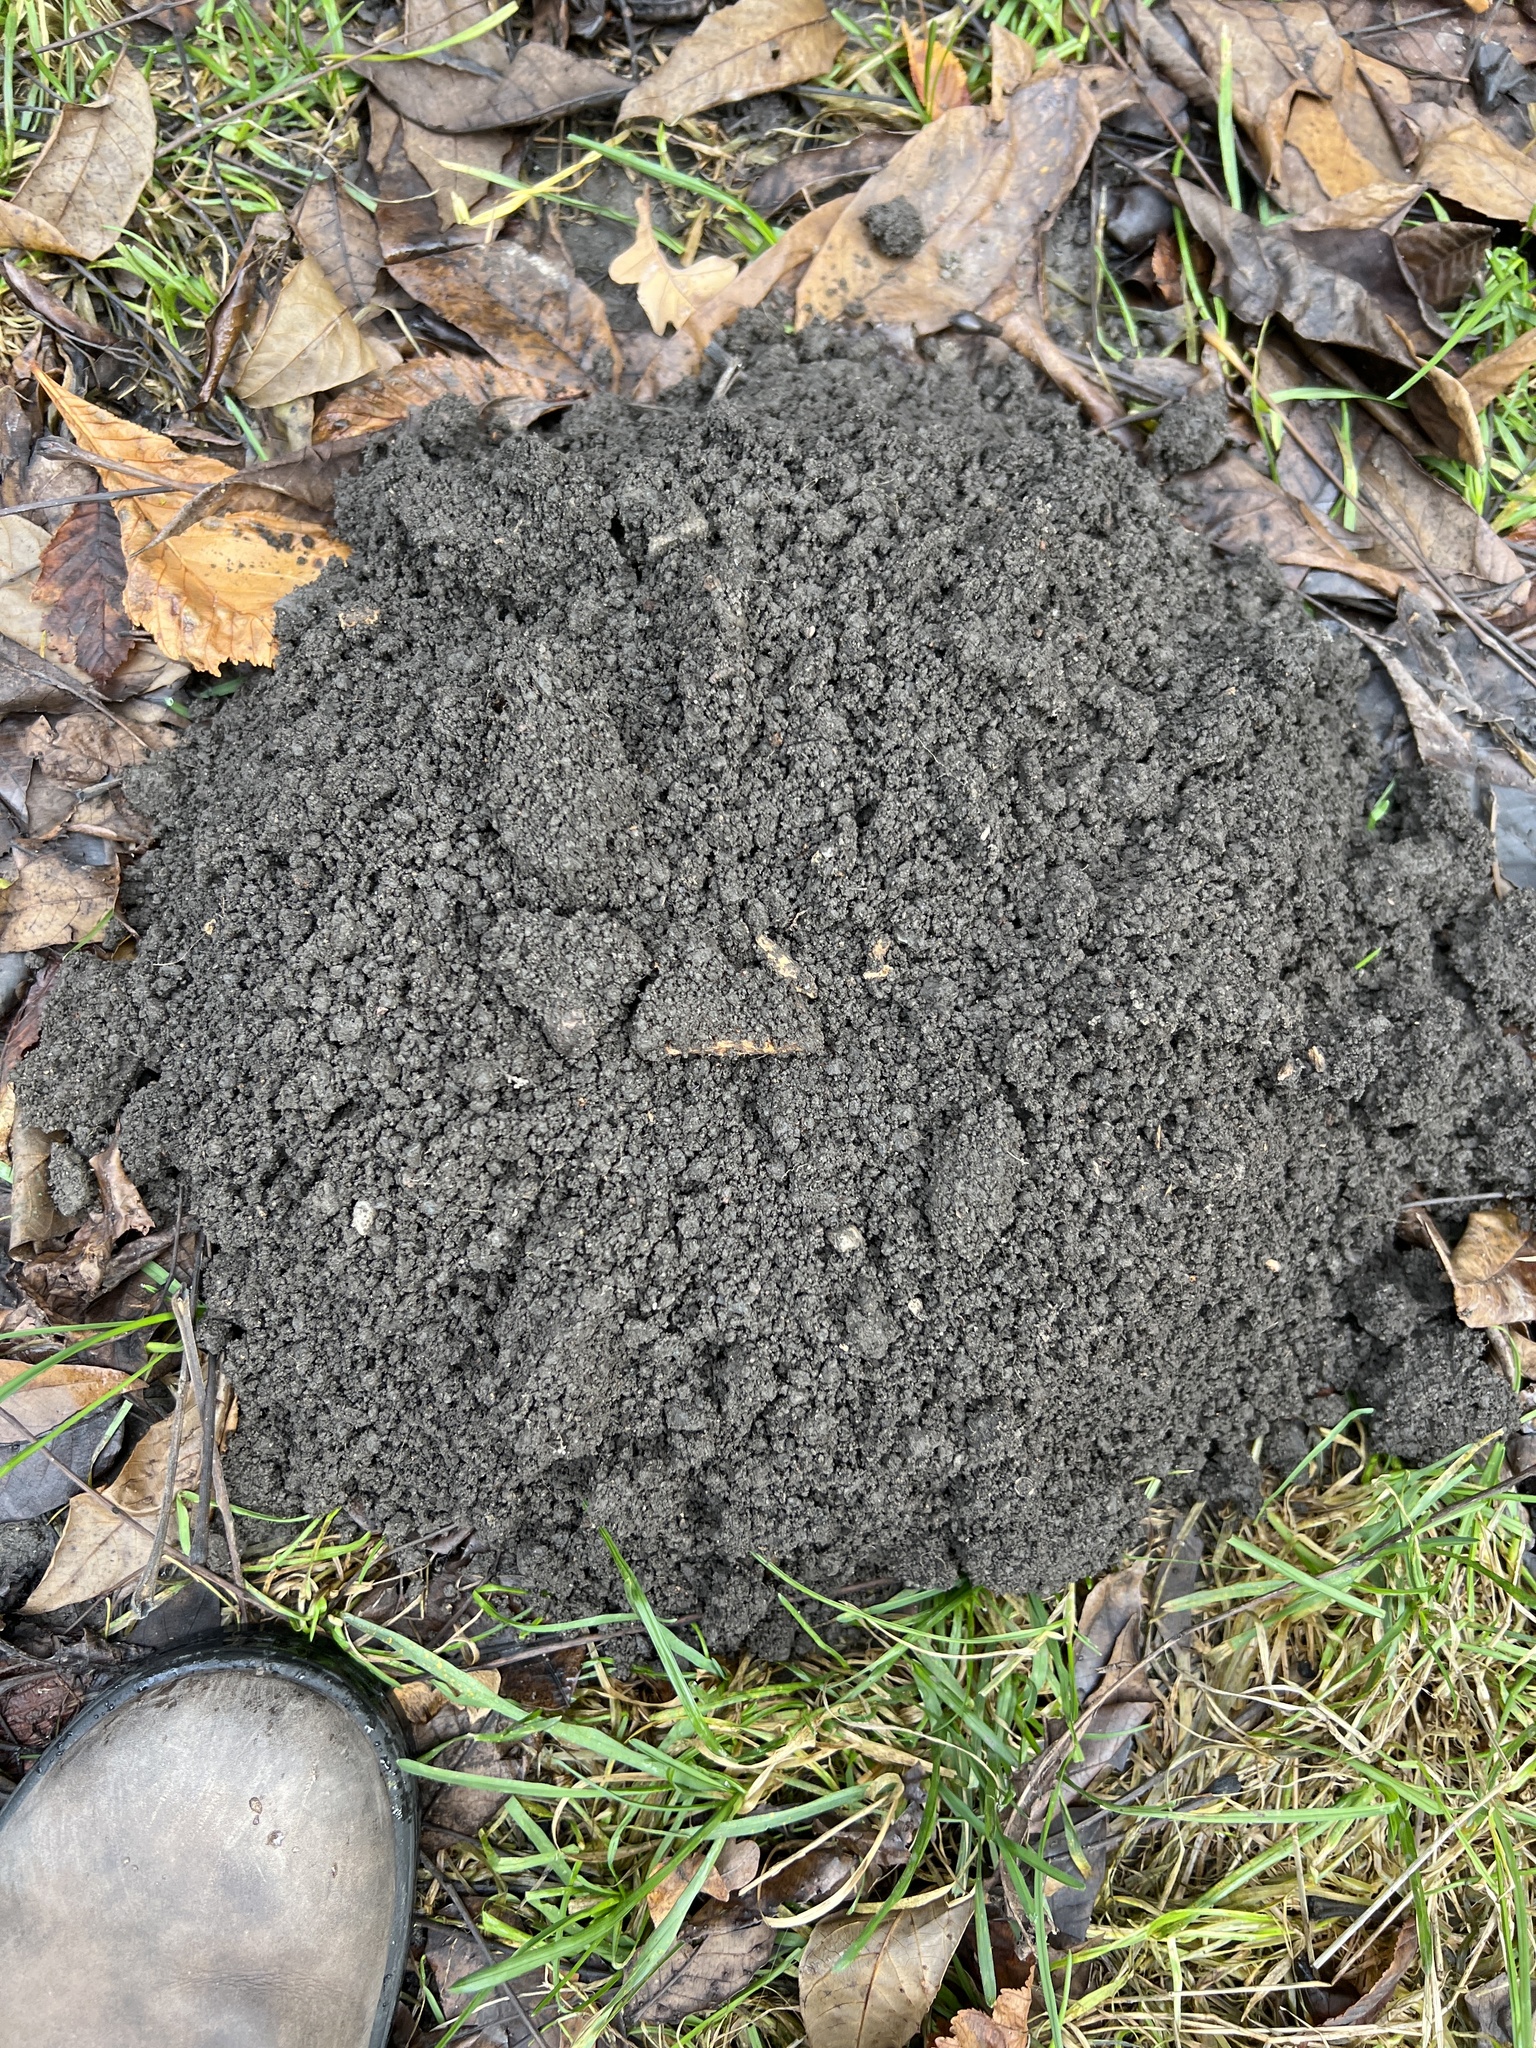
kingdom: Animalia
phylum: Chordata
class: Mammalia
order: Soricomorpha
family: Talpidae
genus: Talpa
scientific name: Talpa europaea
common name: European mole
